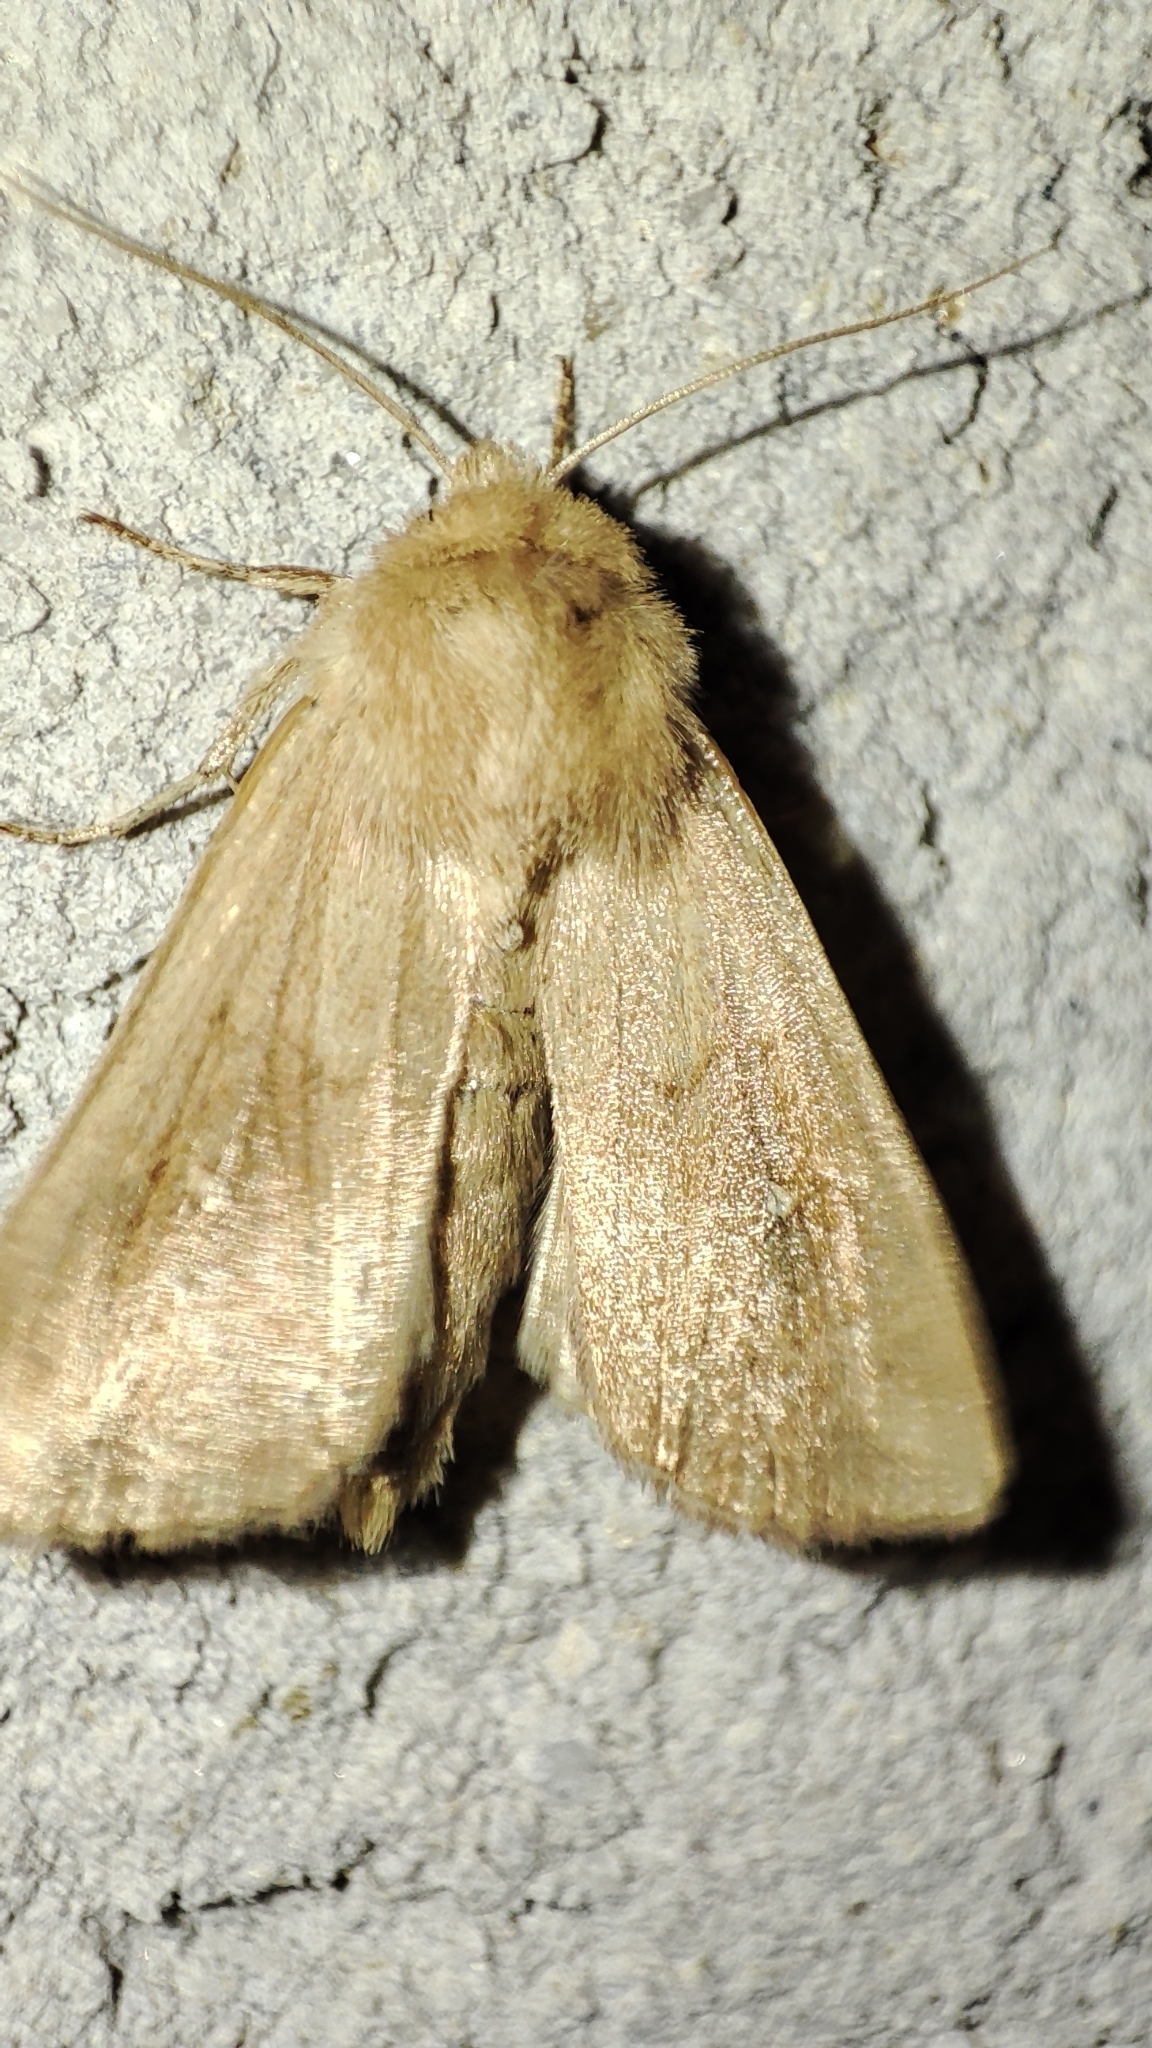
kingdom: Animalia
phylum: Arthropoda
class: Insecta
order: Lepidoptera
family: Noctuidae
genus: Mythimna
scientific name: Mythimna ferrago
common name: Clay
